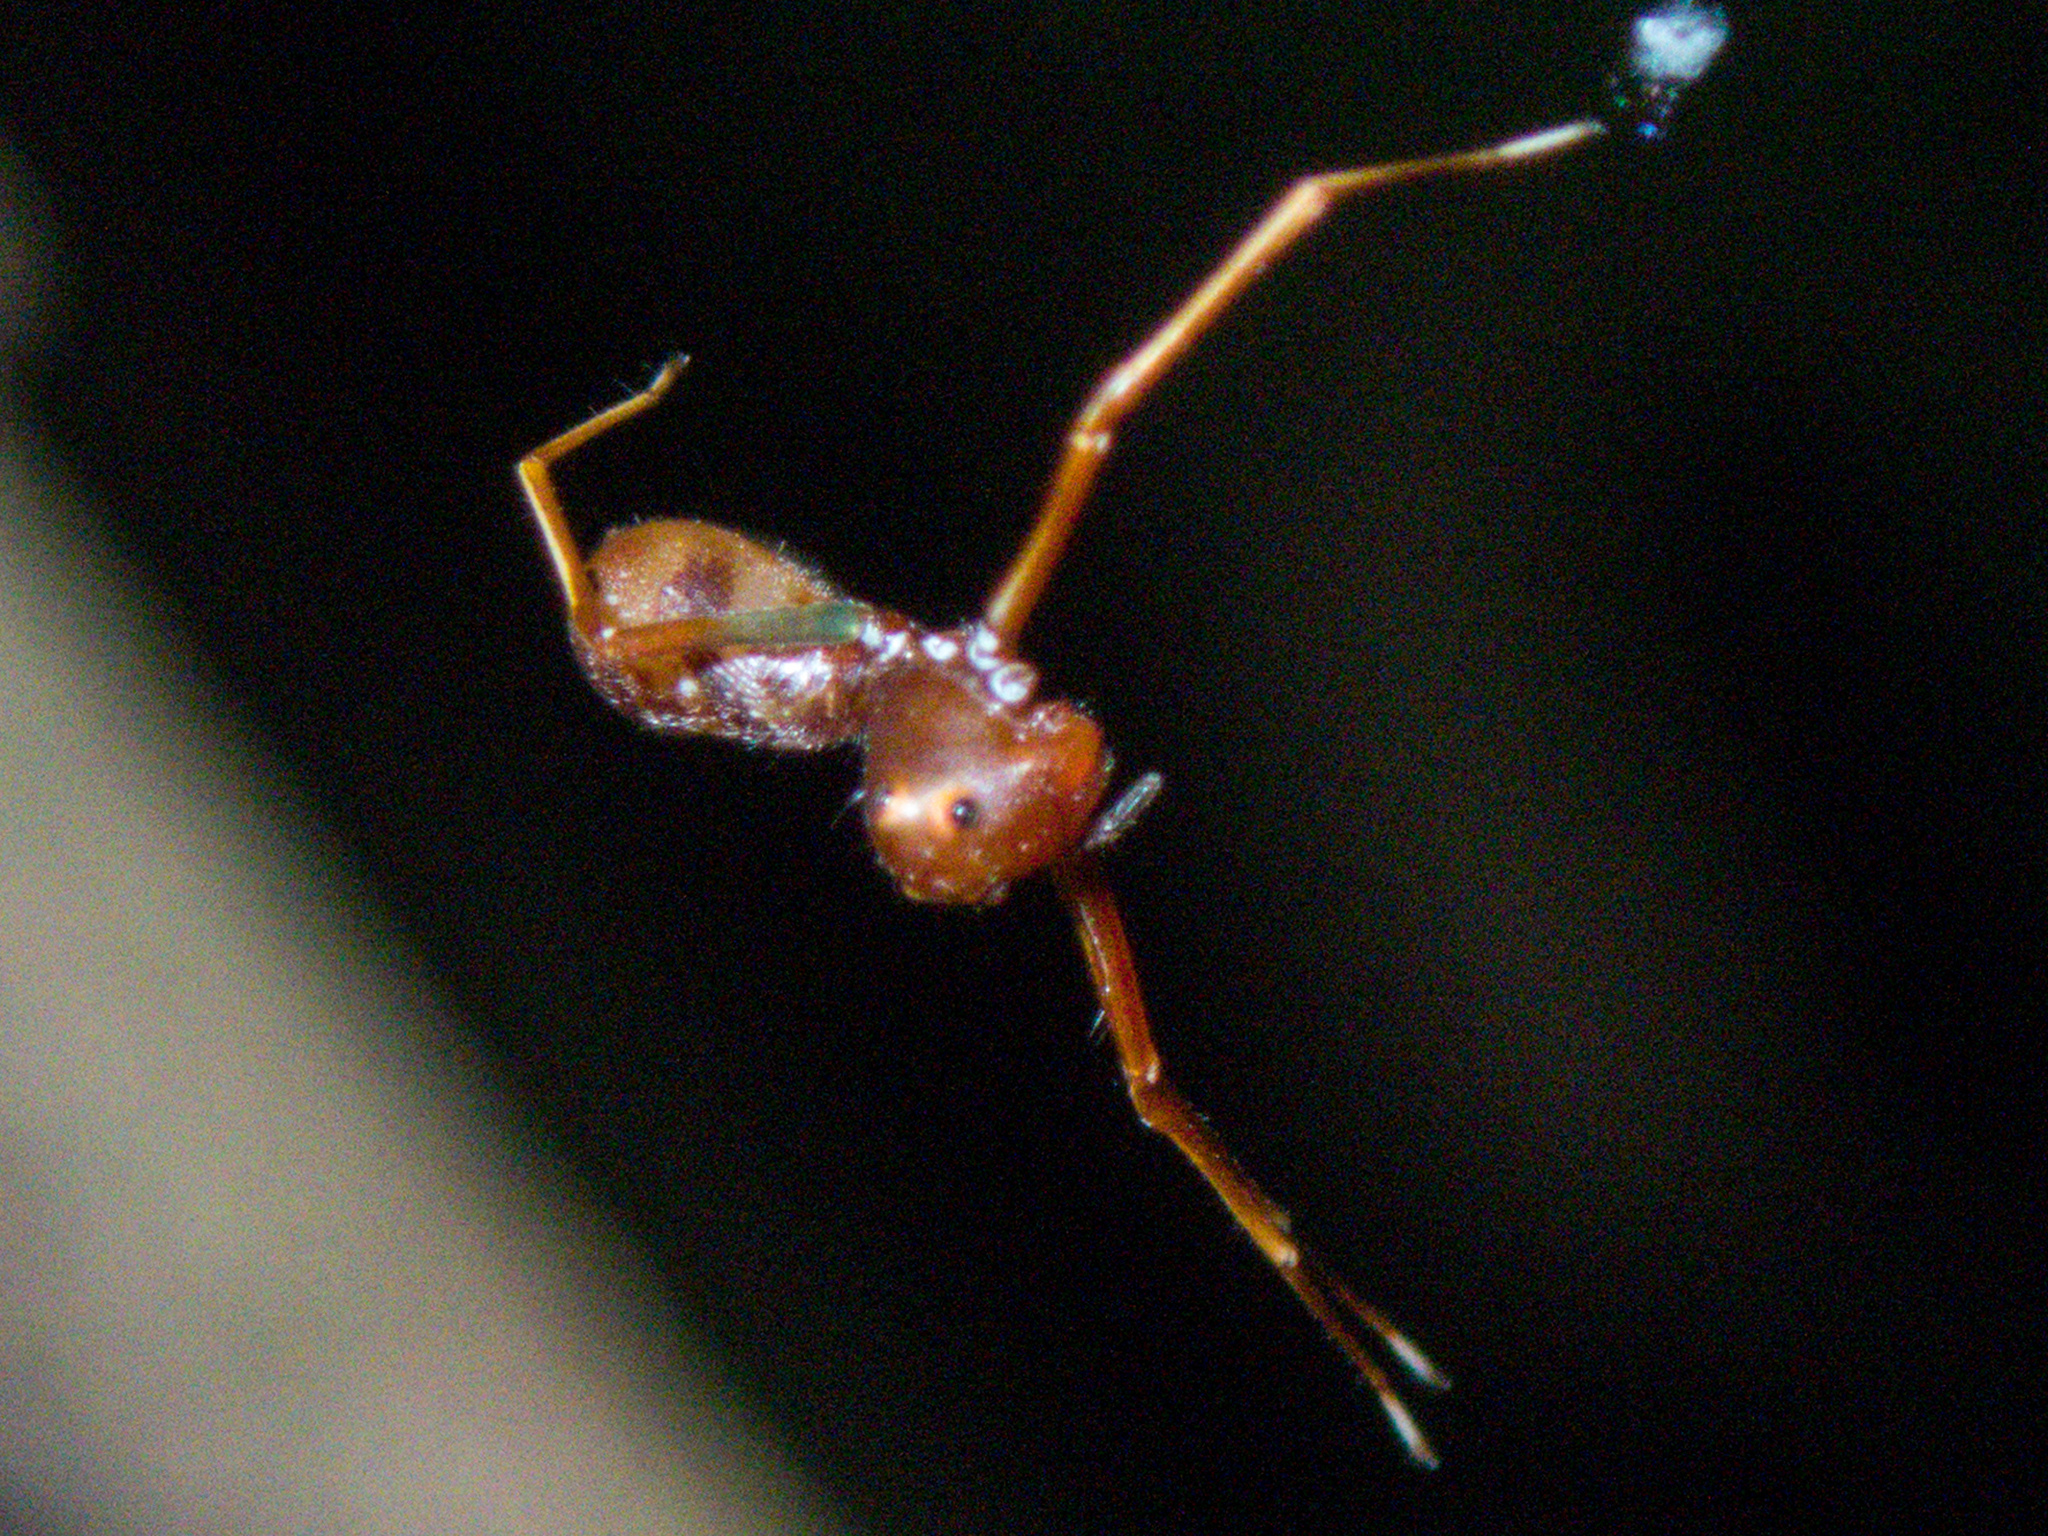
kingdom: Animalia
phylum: Arthropoda
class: Arachnida
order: Araneae
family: Thomisidae
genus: Amyciaea
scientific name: Amyciaea forticeps
